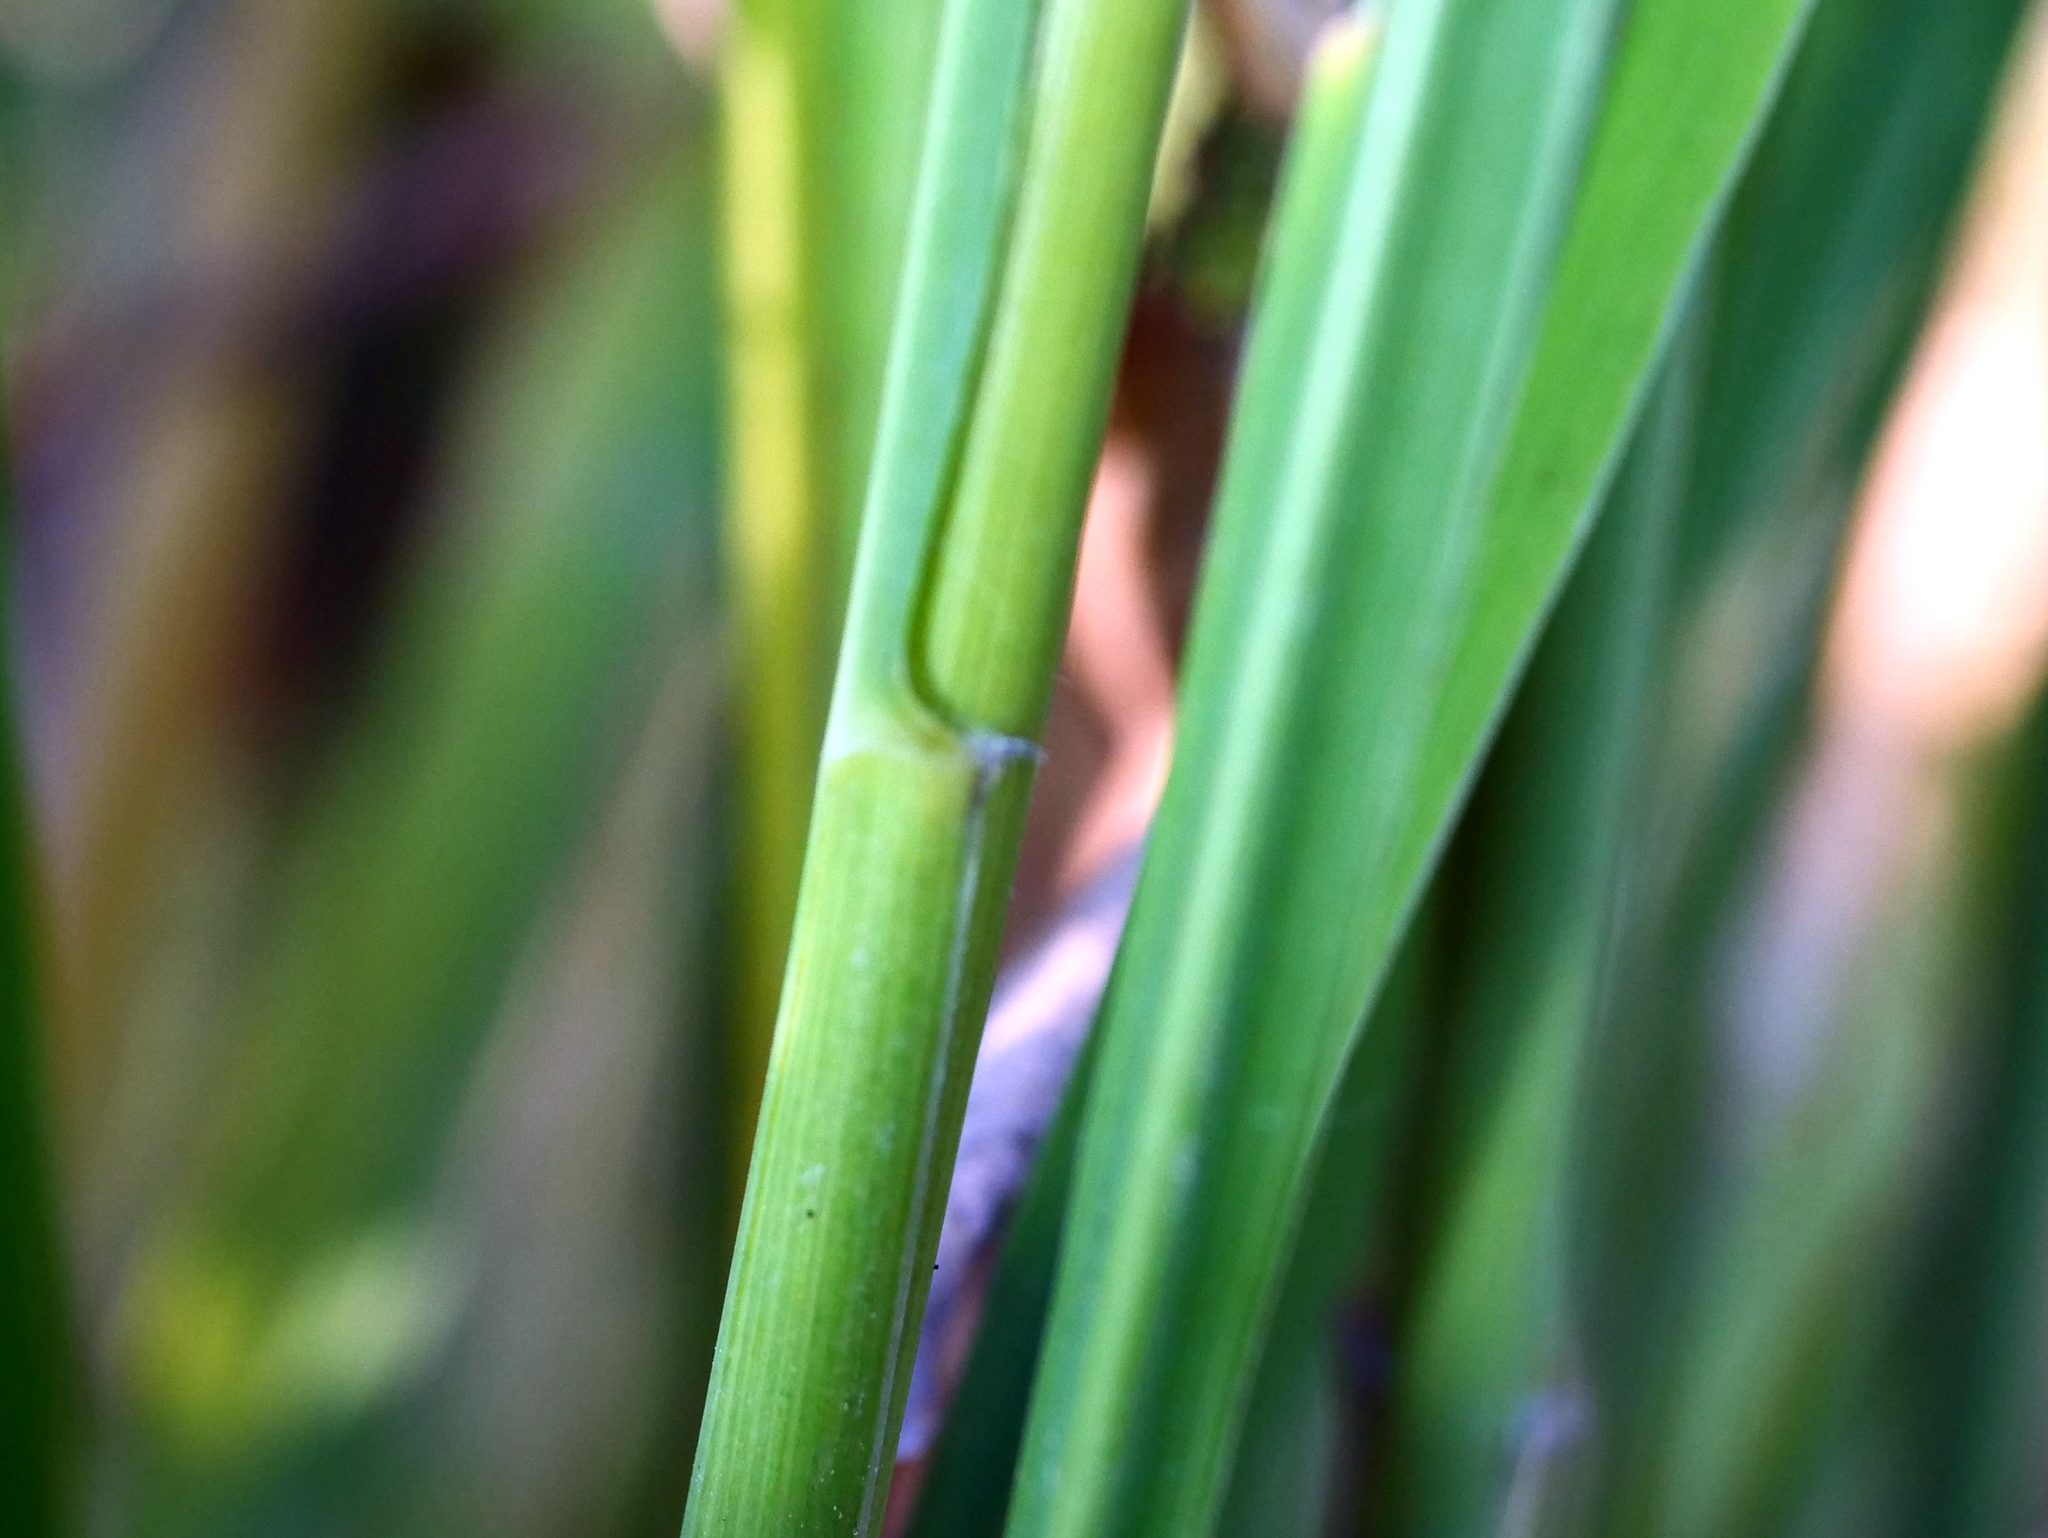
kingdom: Plantae
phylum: Tracheophyta
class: Liliopsida
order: Poales
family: Poaceae
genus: Molinia
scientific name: Molinia arundinacea
